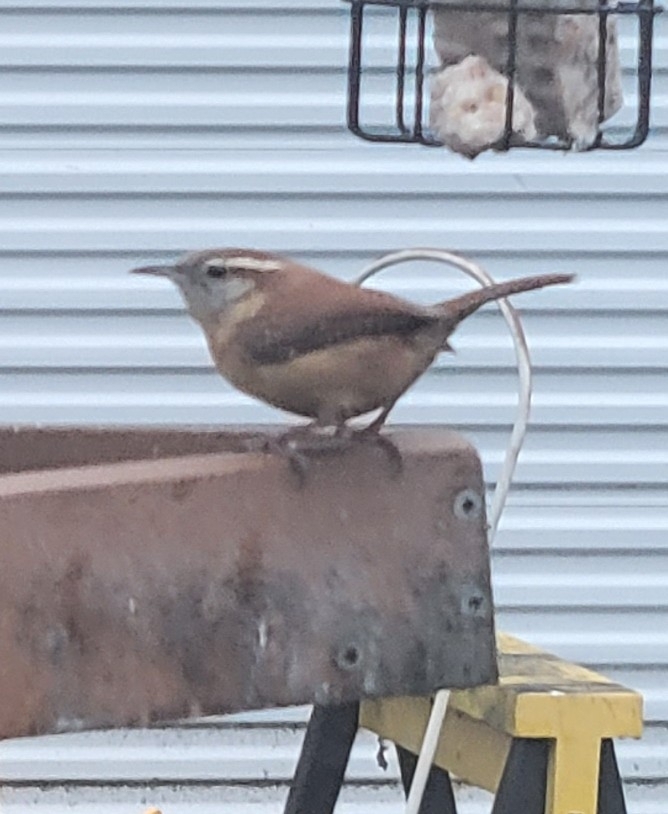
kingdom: Animalia
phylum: Chordata
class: Aves
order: Passeriformes
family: Troglodytidae
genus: Thryothorus
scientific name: Thryothorus ludovicianus
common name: Carolina wren
